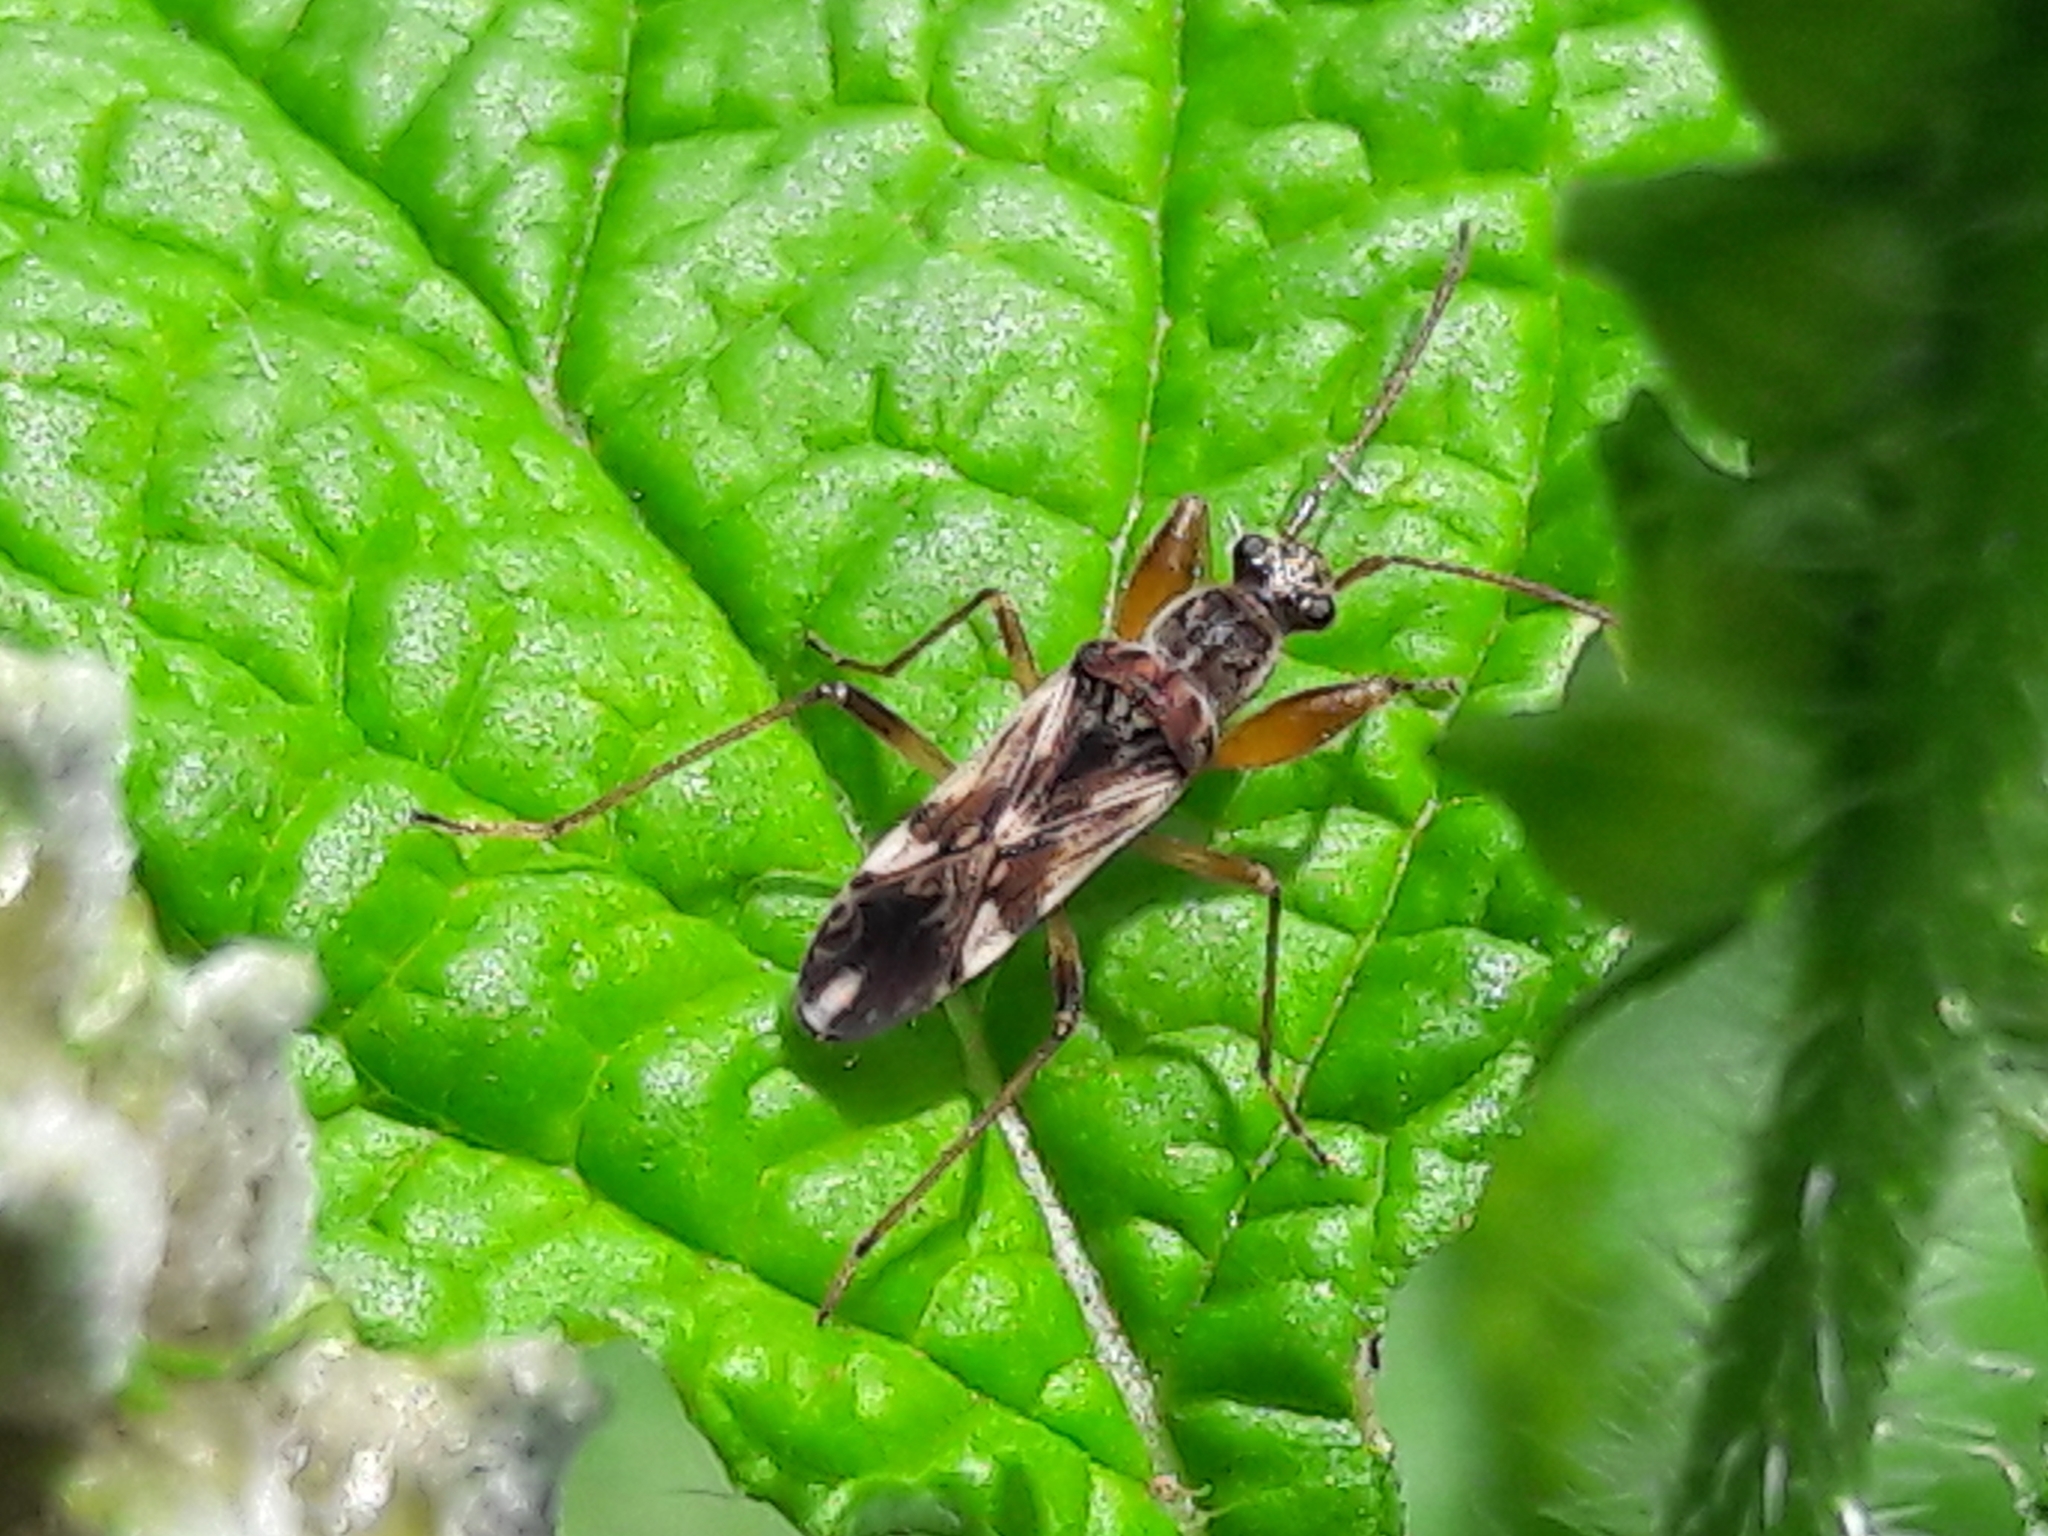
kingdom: Animalia
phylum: Arthropoda
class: Insecta
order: Hemiptera
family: Rhyparochromidae
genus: Neopamera
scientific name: Neopamera bilobata
